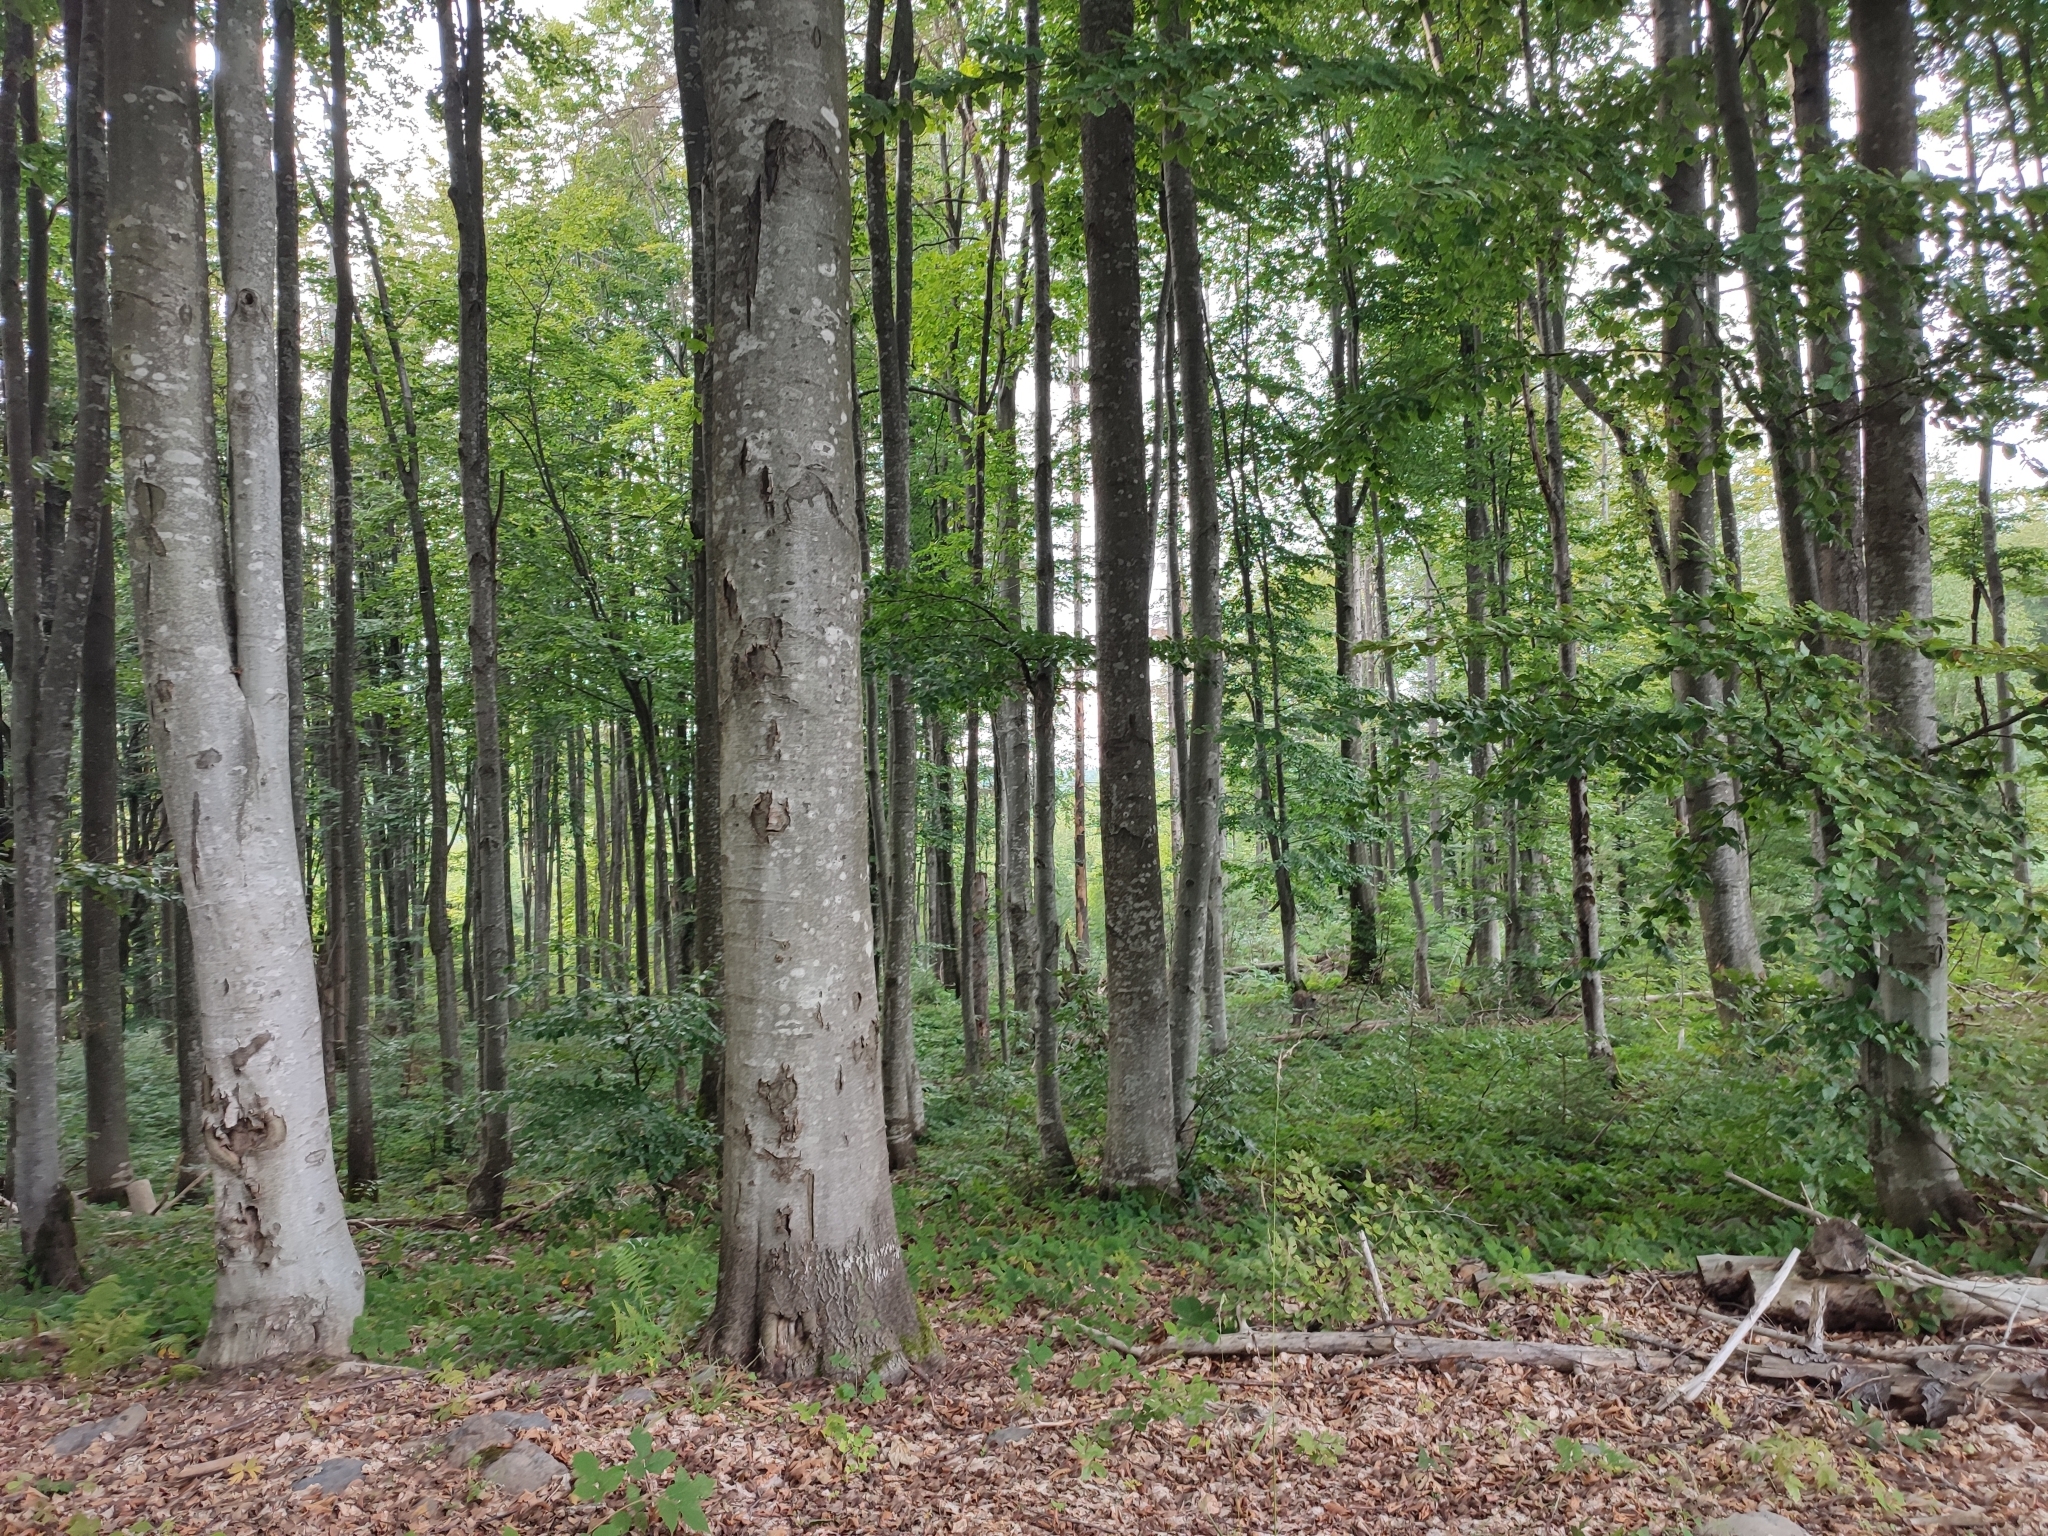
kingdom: Plantae
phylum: Tracheophyta
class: Magnoliopsida
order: Fagales
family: Fagaceae
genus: Fagus
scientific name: Fagus sylvatica
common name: Beech
